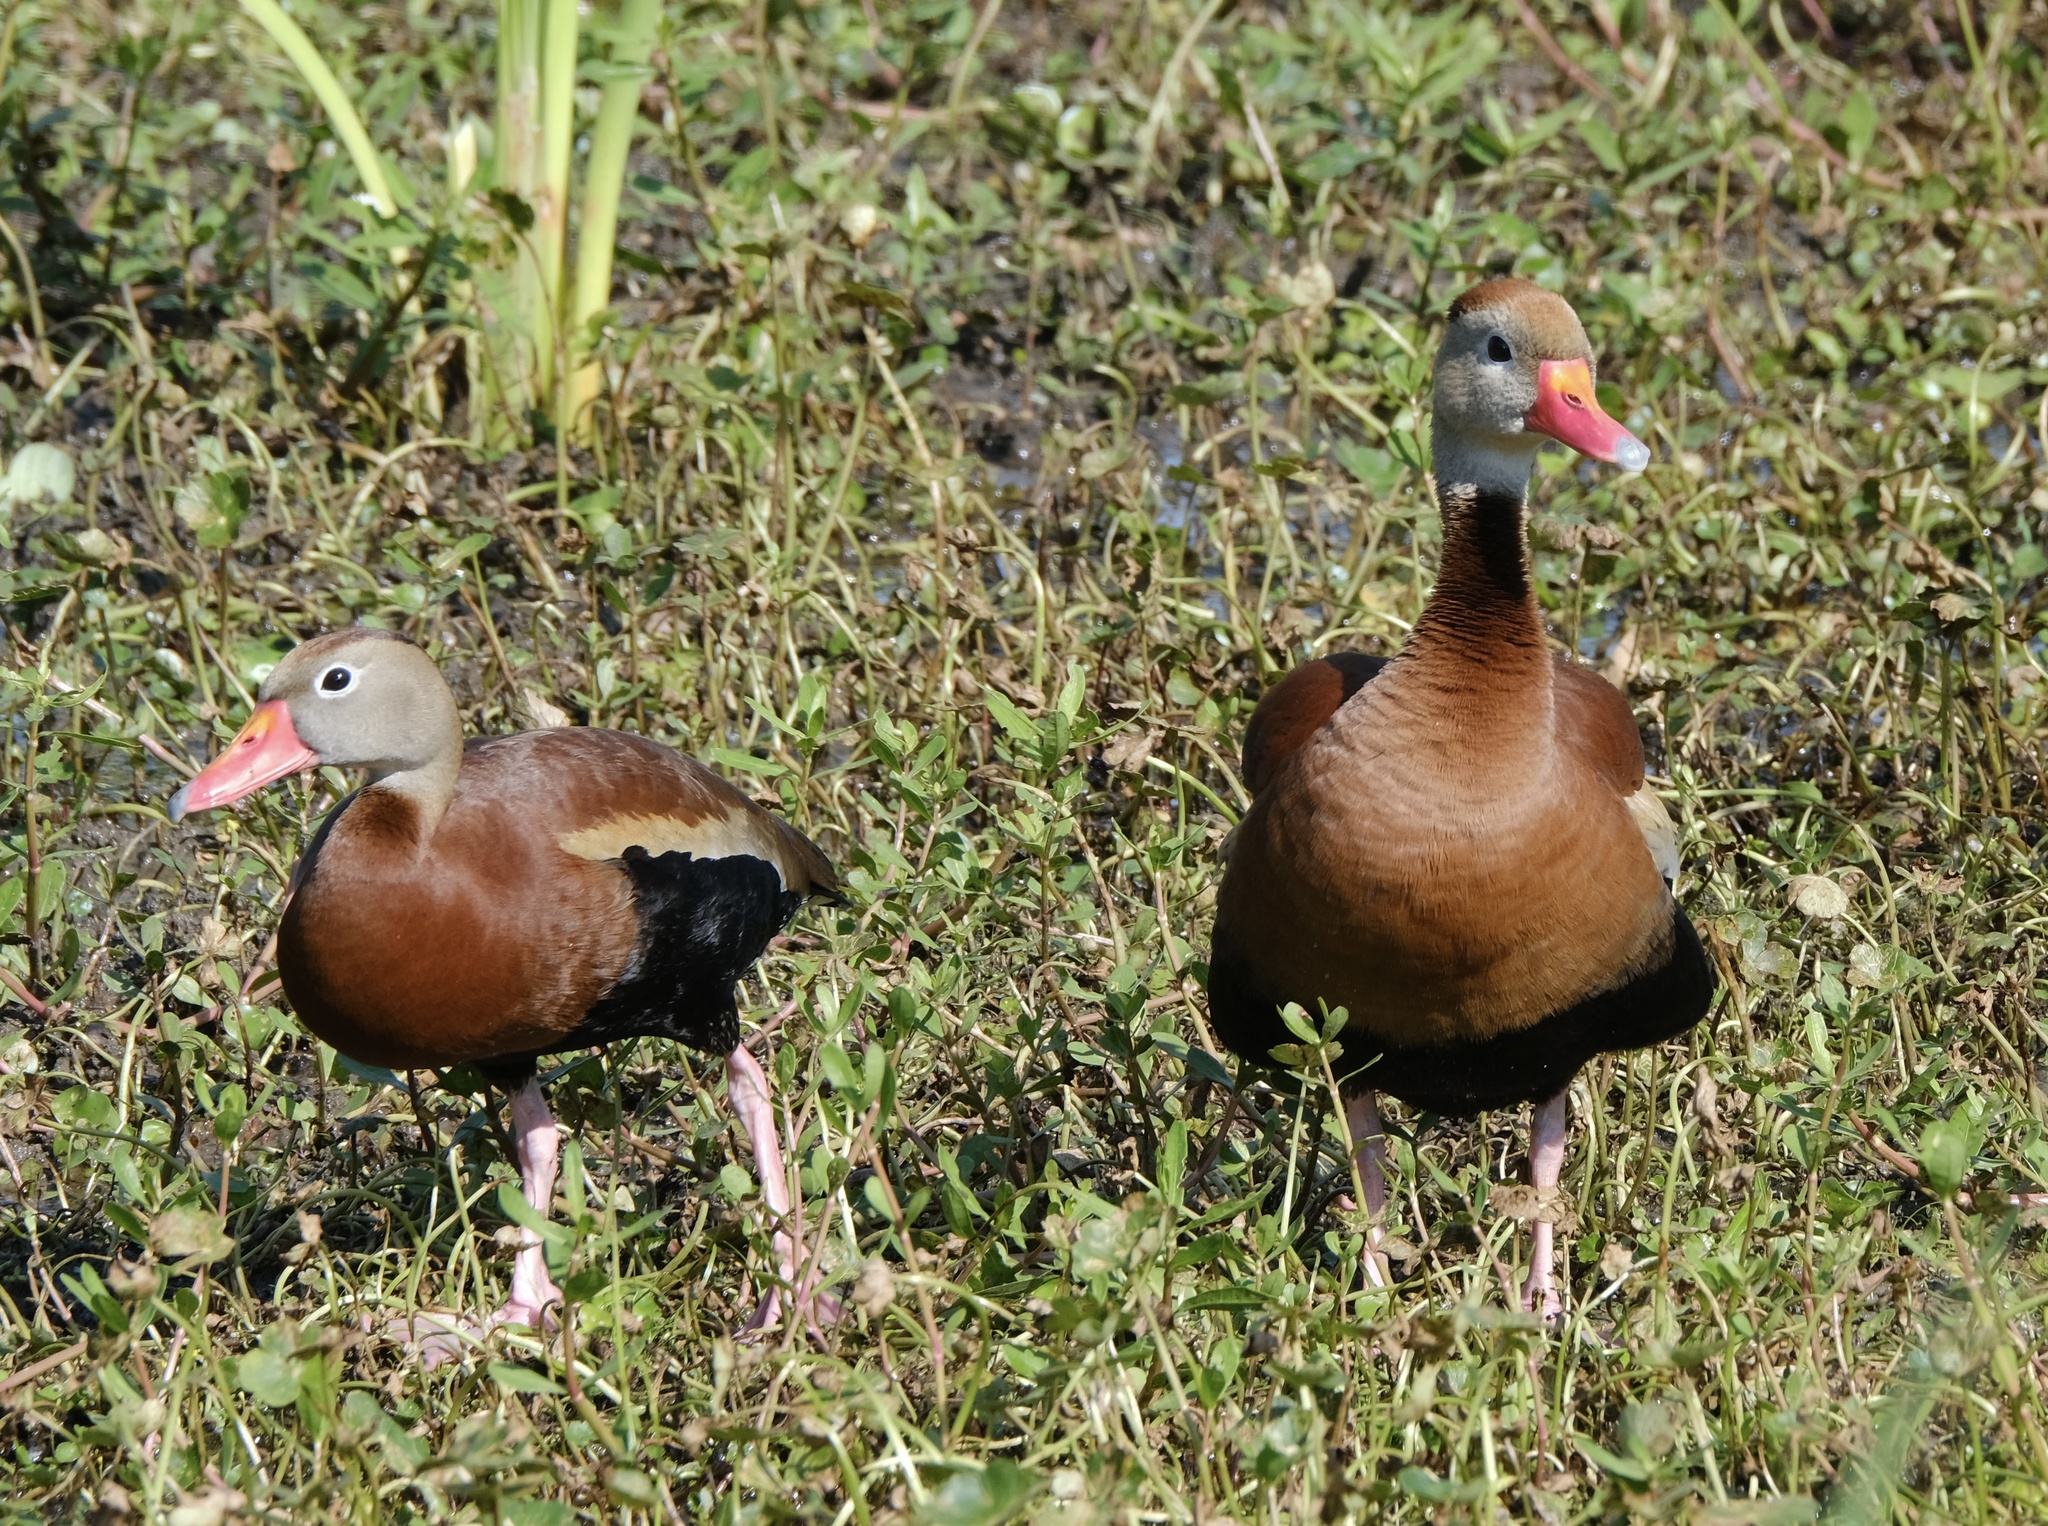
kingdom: Animalia
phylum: Chordata
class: Aves
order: Anseriformes
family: Anatidae
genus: Dendrocygna
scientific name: Dendrocygna autumnalis
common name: Black-bellied whistling duck
